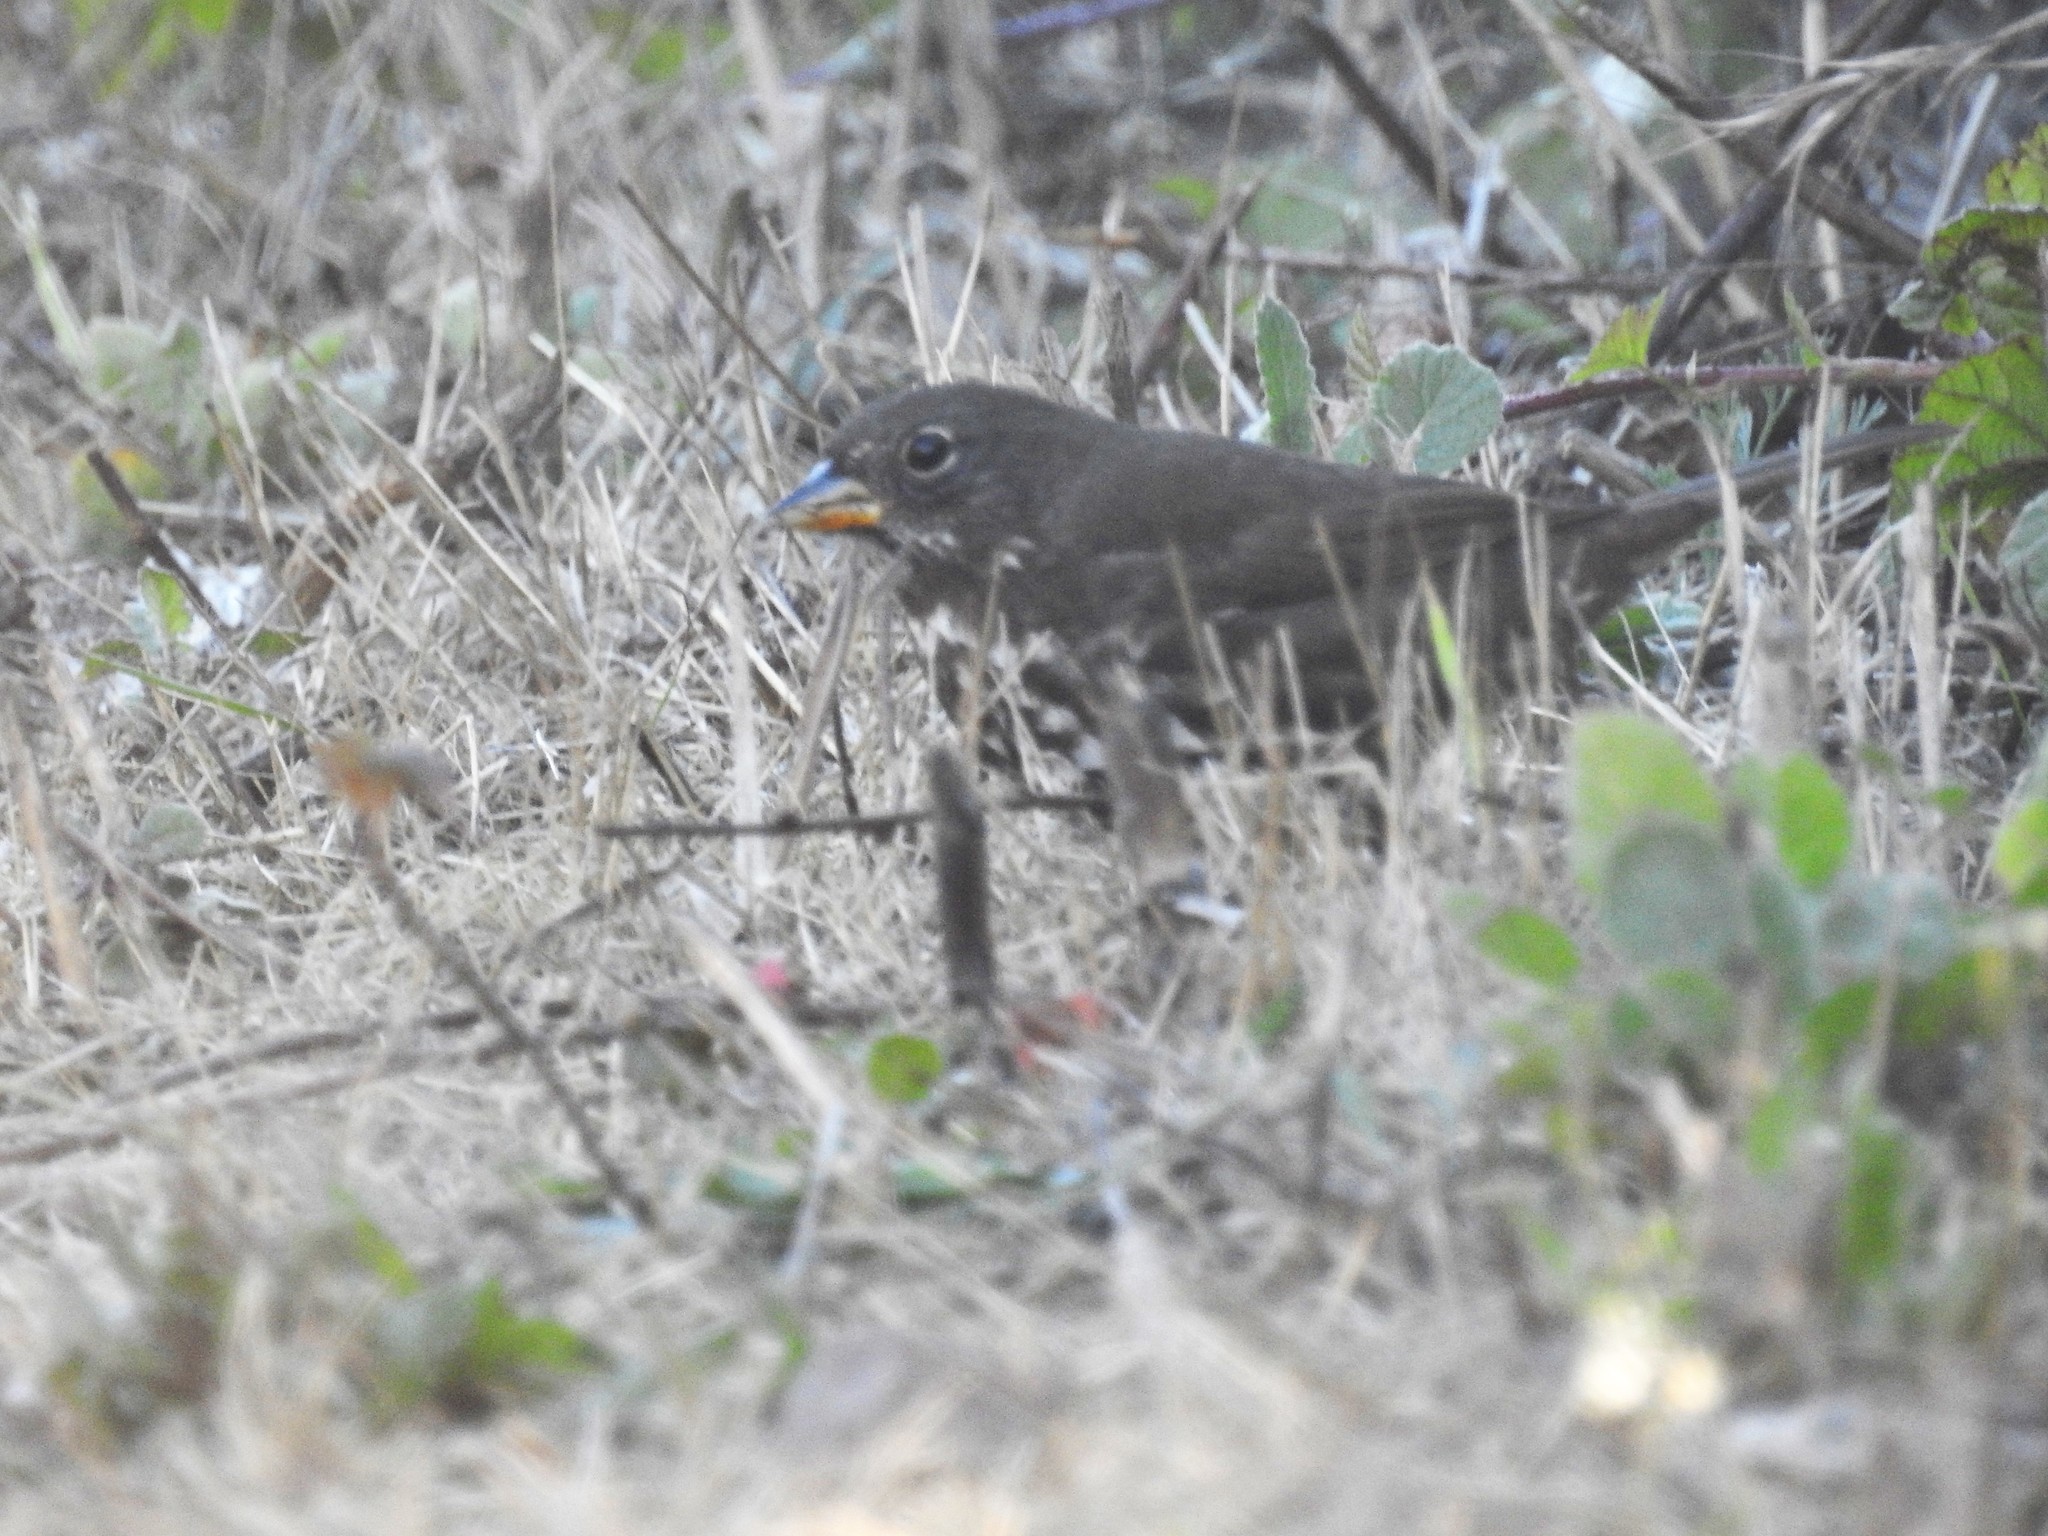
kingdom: Animalia
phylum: Chordata
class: Aves
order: Passeriformes
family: Passerellidae
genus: Passerella
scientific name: Passerella iliaca
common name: Fox sparrow
